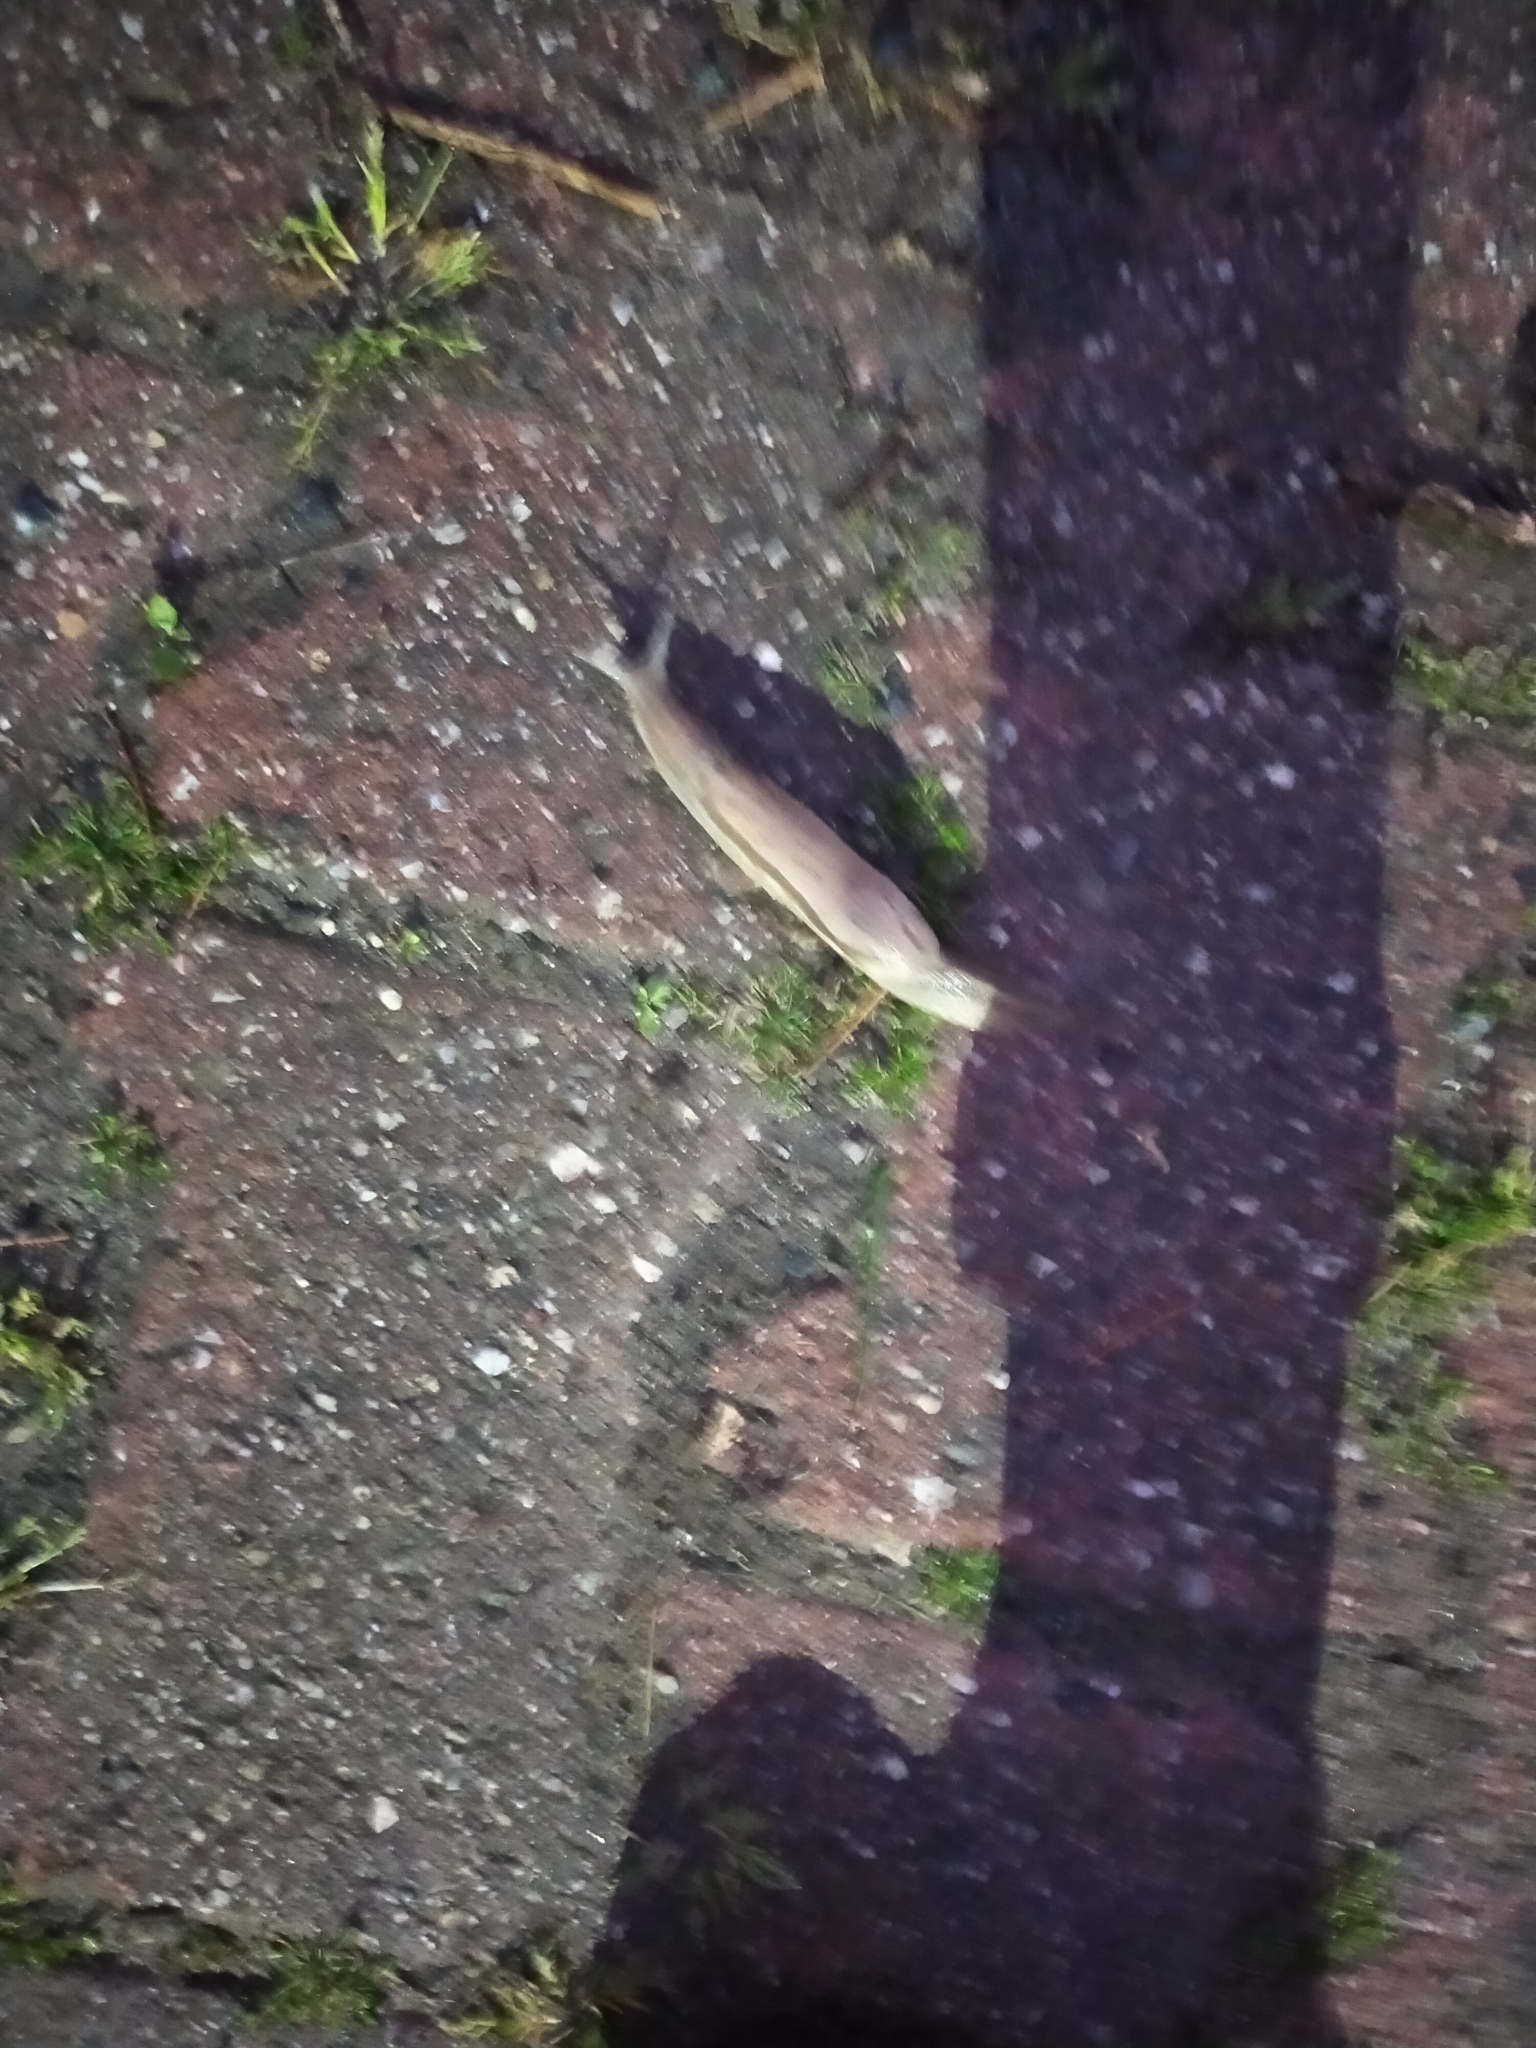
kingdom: Animalia
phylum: Mollusca
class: Gastropoda
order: Stylommatophora
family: Parmacellidae
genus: Drusia
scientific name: Drusia ibera
